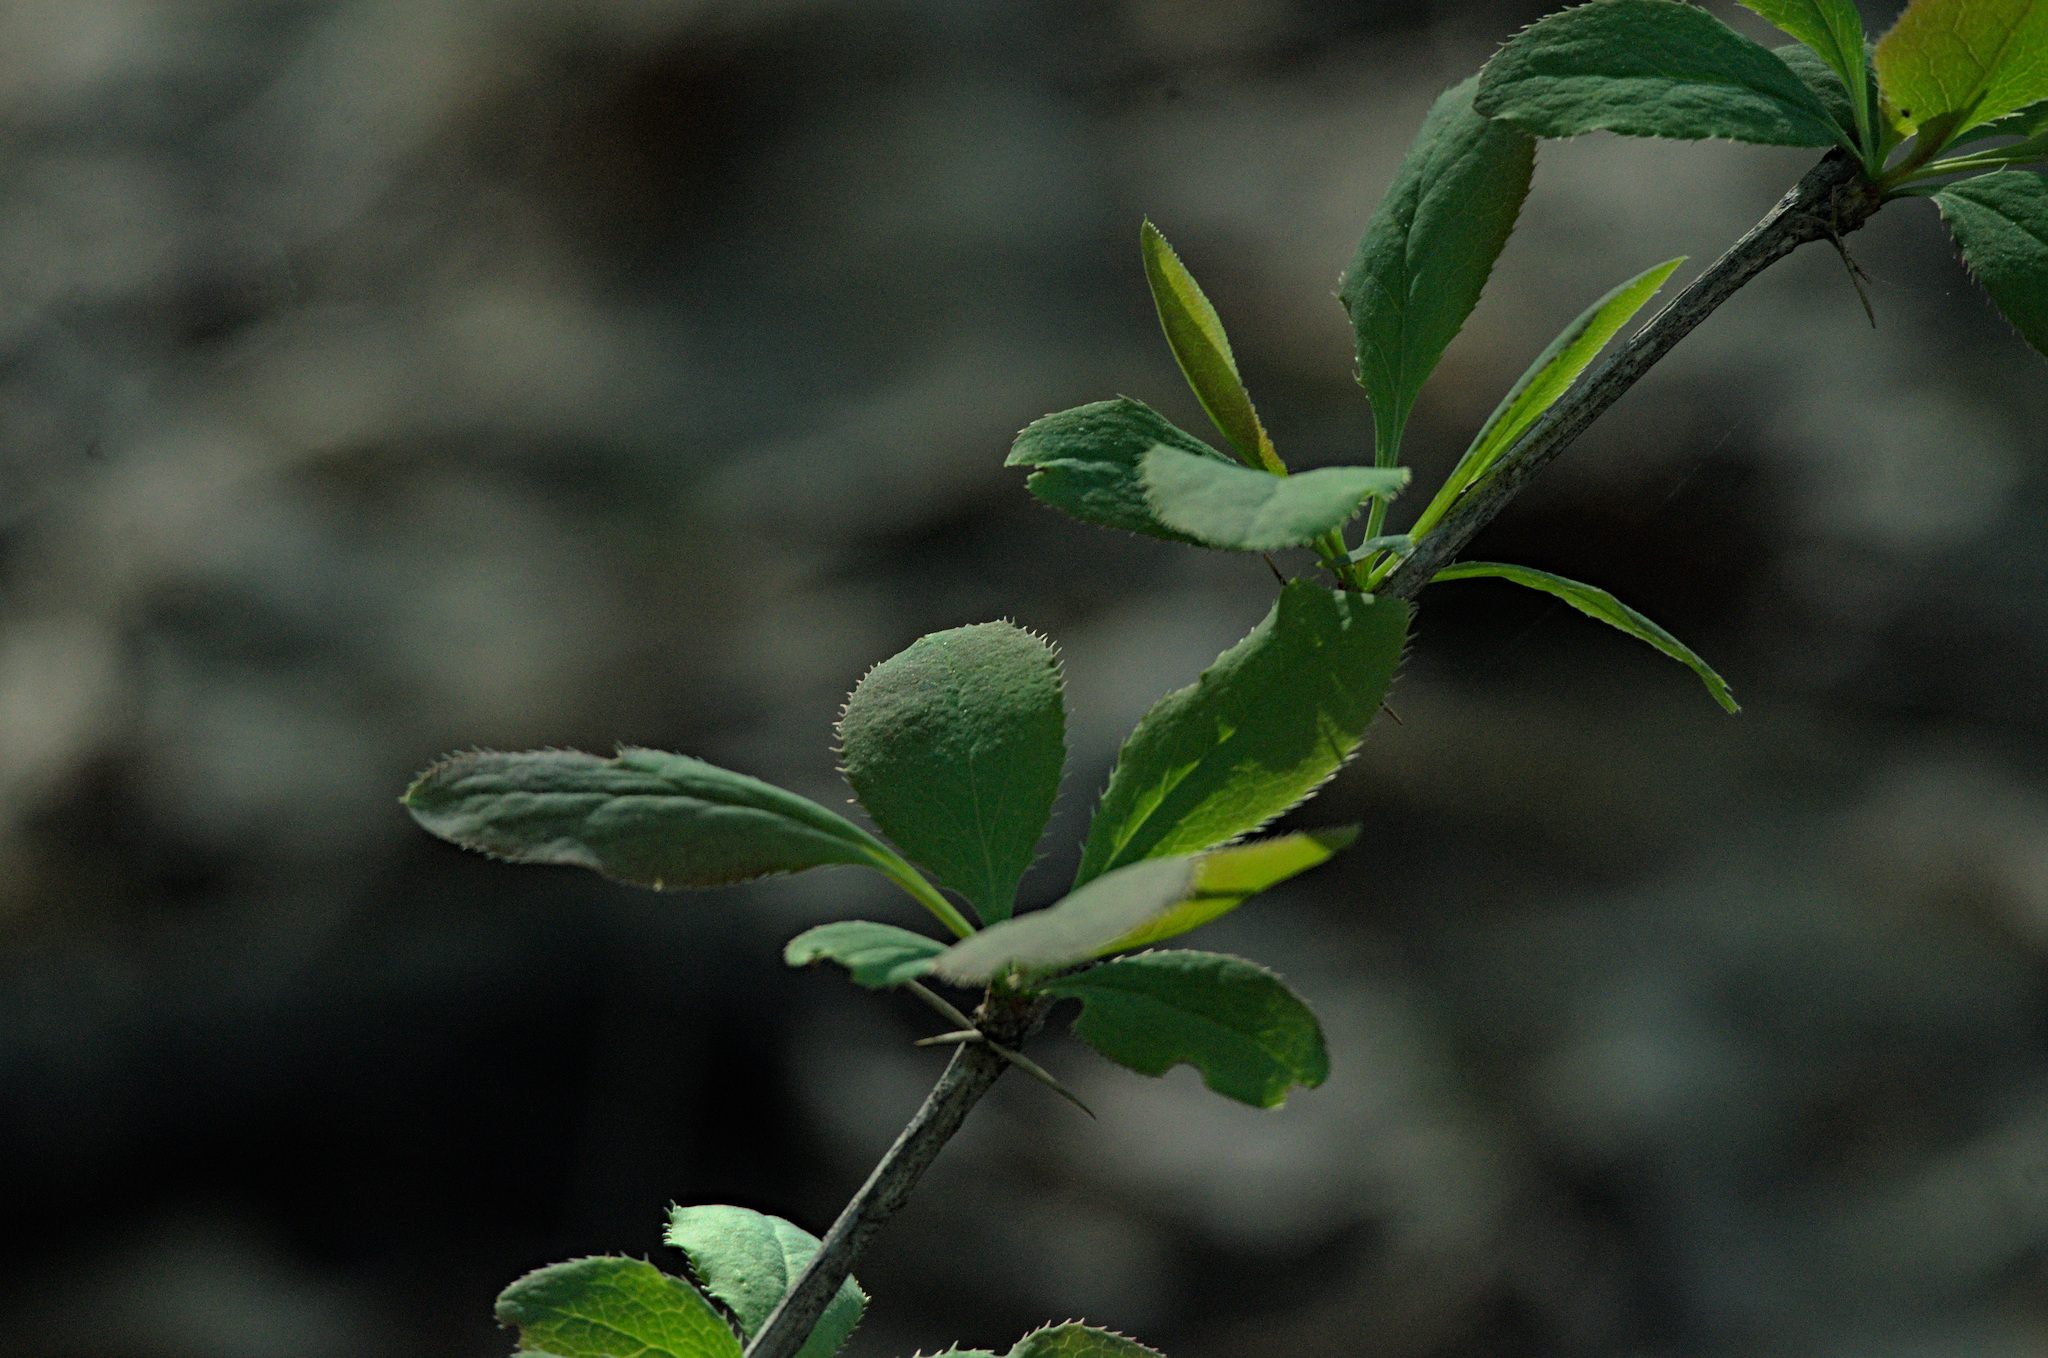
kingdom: Plantae
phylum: Tracheophyta
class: Magnoliopsida
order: Ranunculales
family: Berberidaceae
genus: Berberis
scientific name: Berberis vulgaris
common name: Barberry
